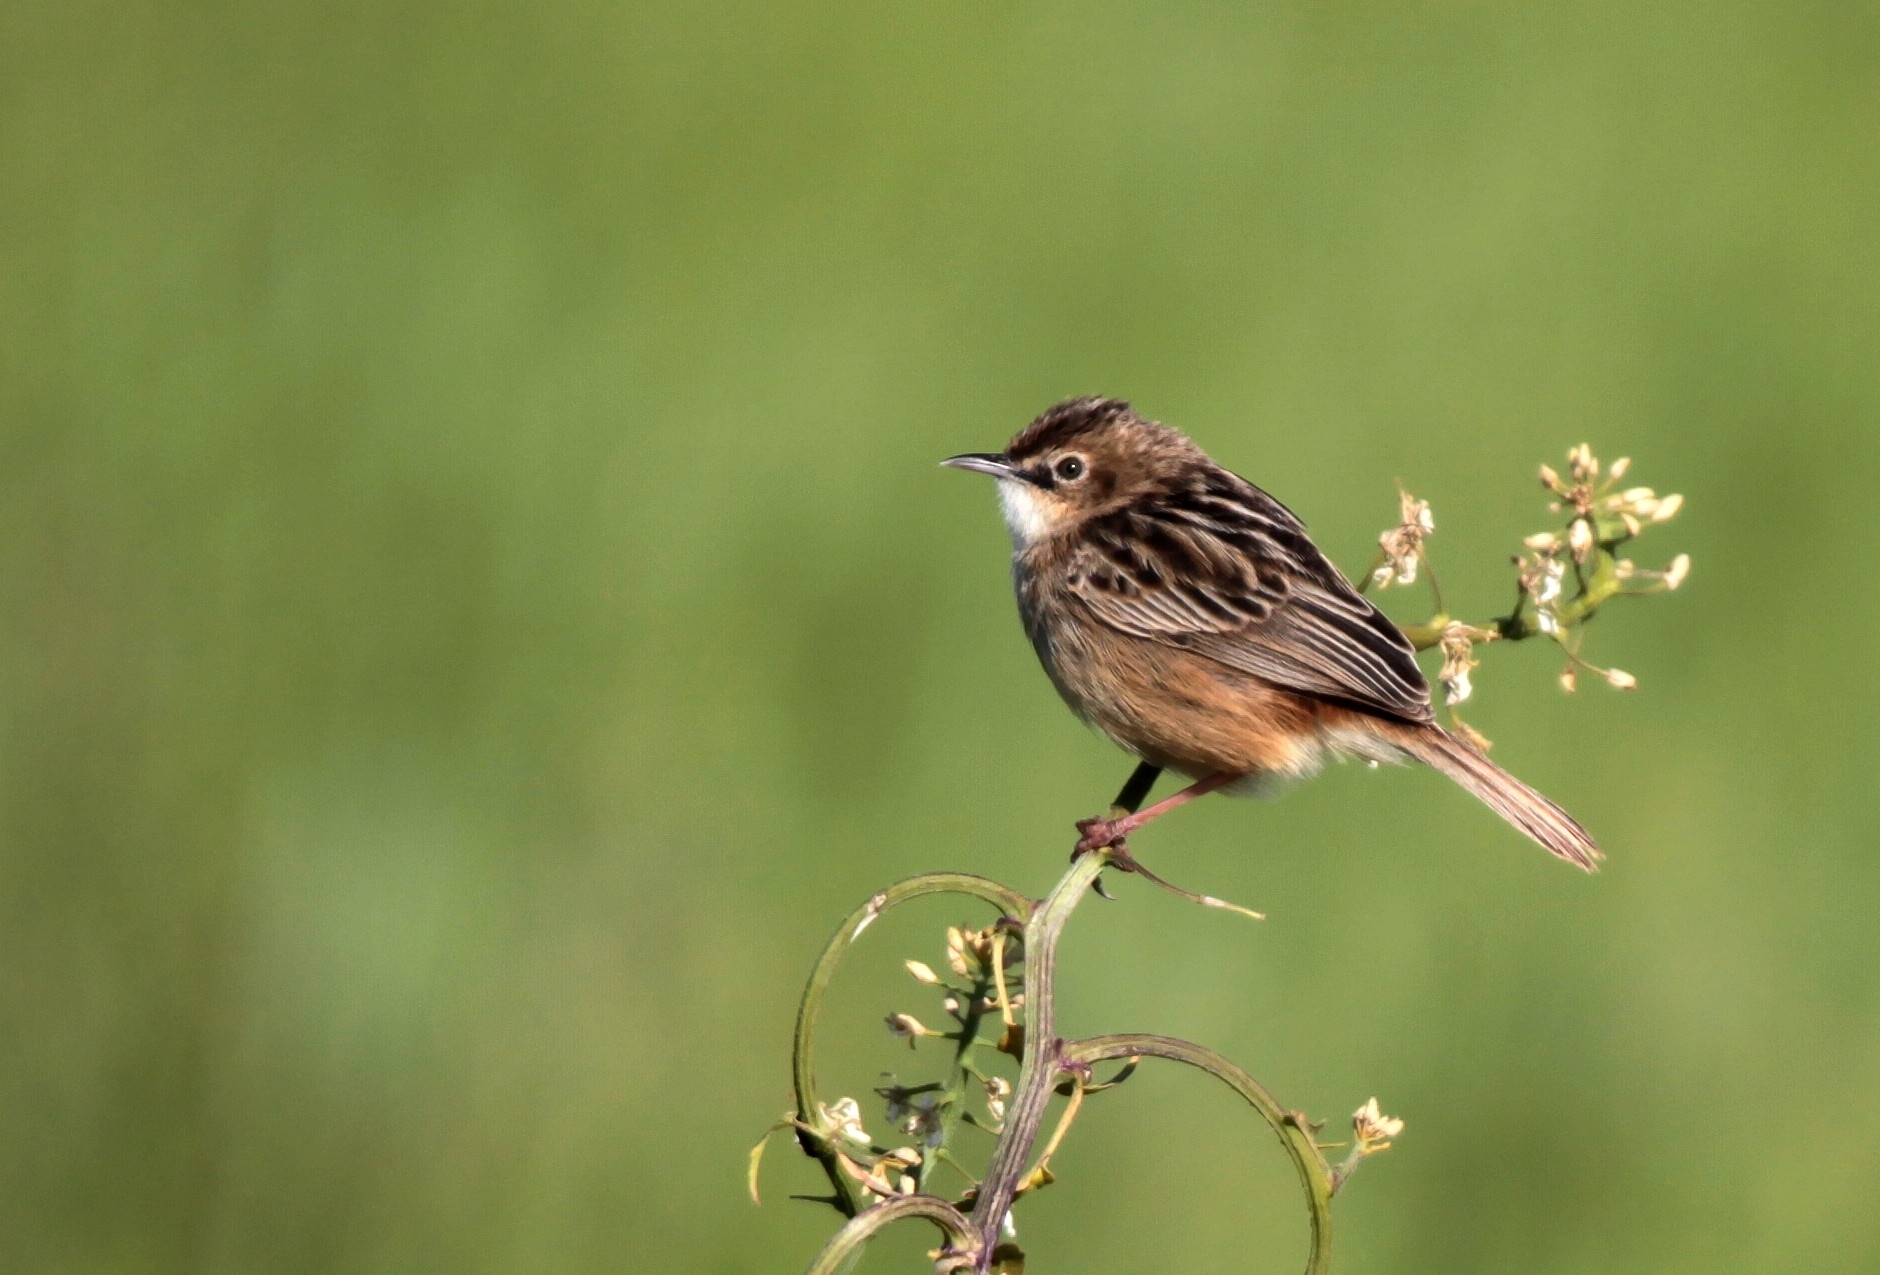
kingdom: Animalia
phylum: Chordata
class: Aves
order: Passeriformes
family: Cisticolidae
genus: Cisticola
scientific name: Cisticola juncidis
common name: Zitting cisticola
